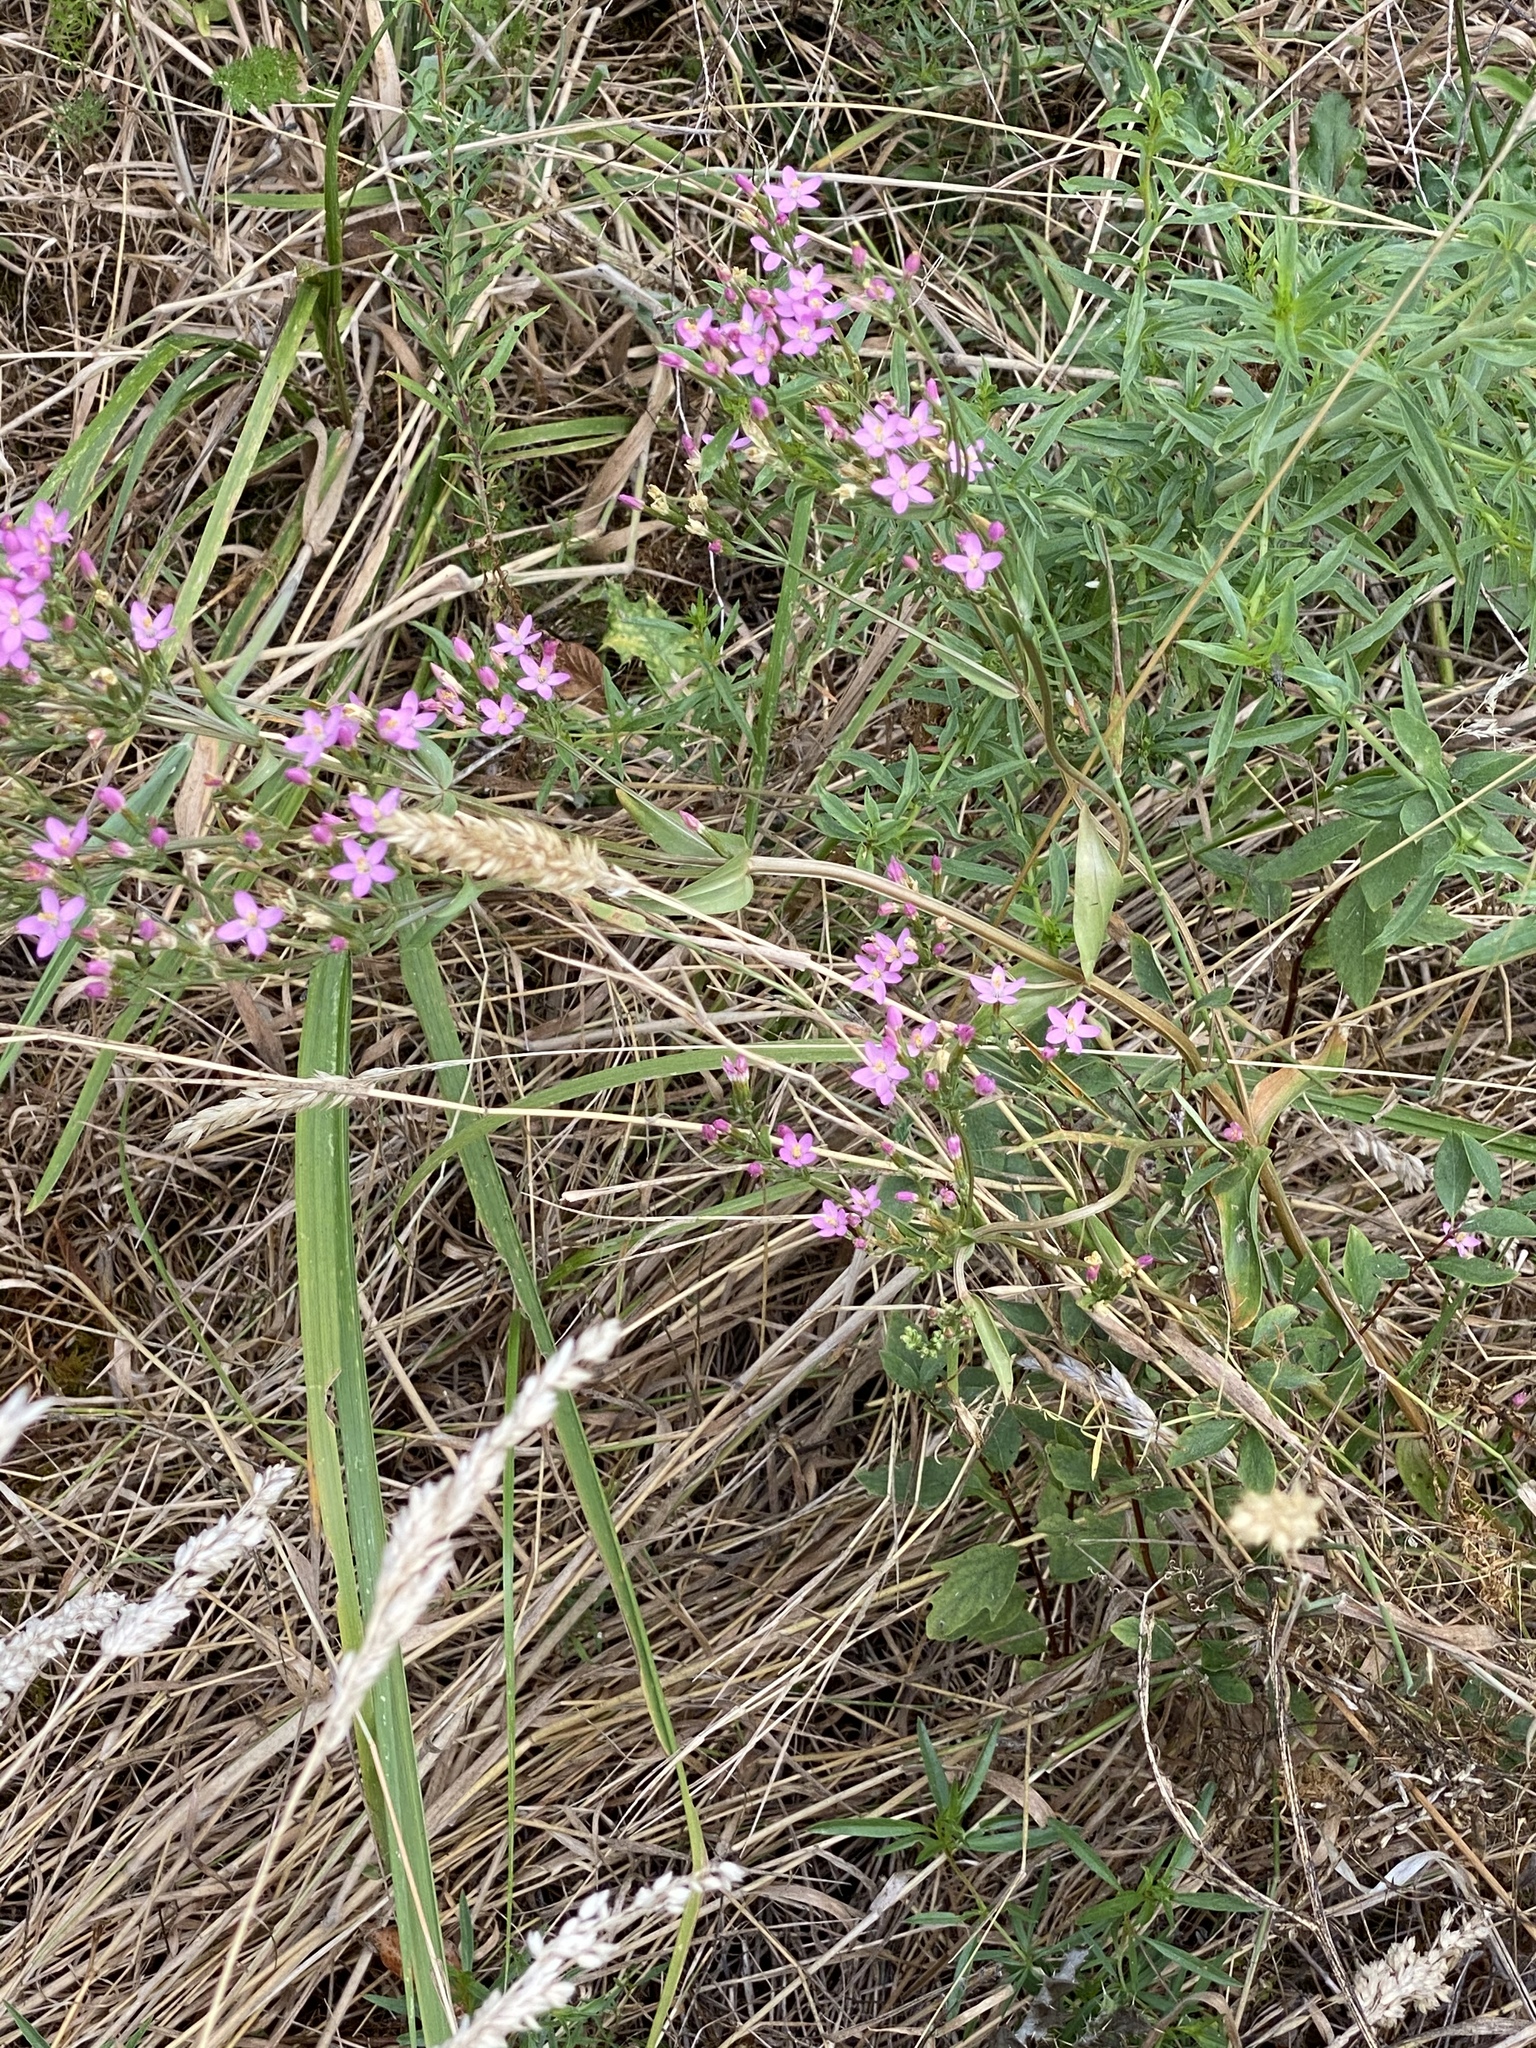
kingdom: Plantae
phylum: Tracheophyta
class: Magnoliopsida
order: Gentianales
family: Gentianaceae
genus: Centaurium
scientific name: Centaurium erythraea
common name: Common centaury
